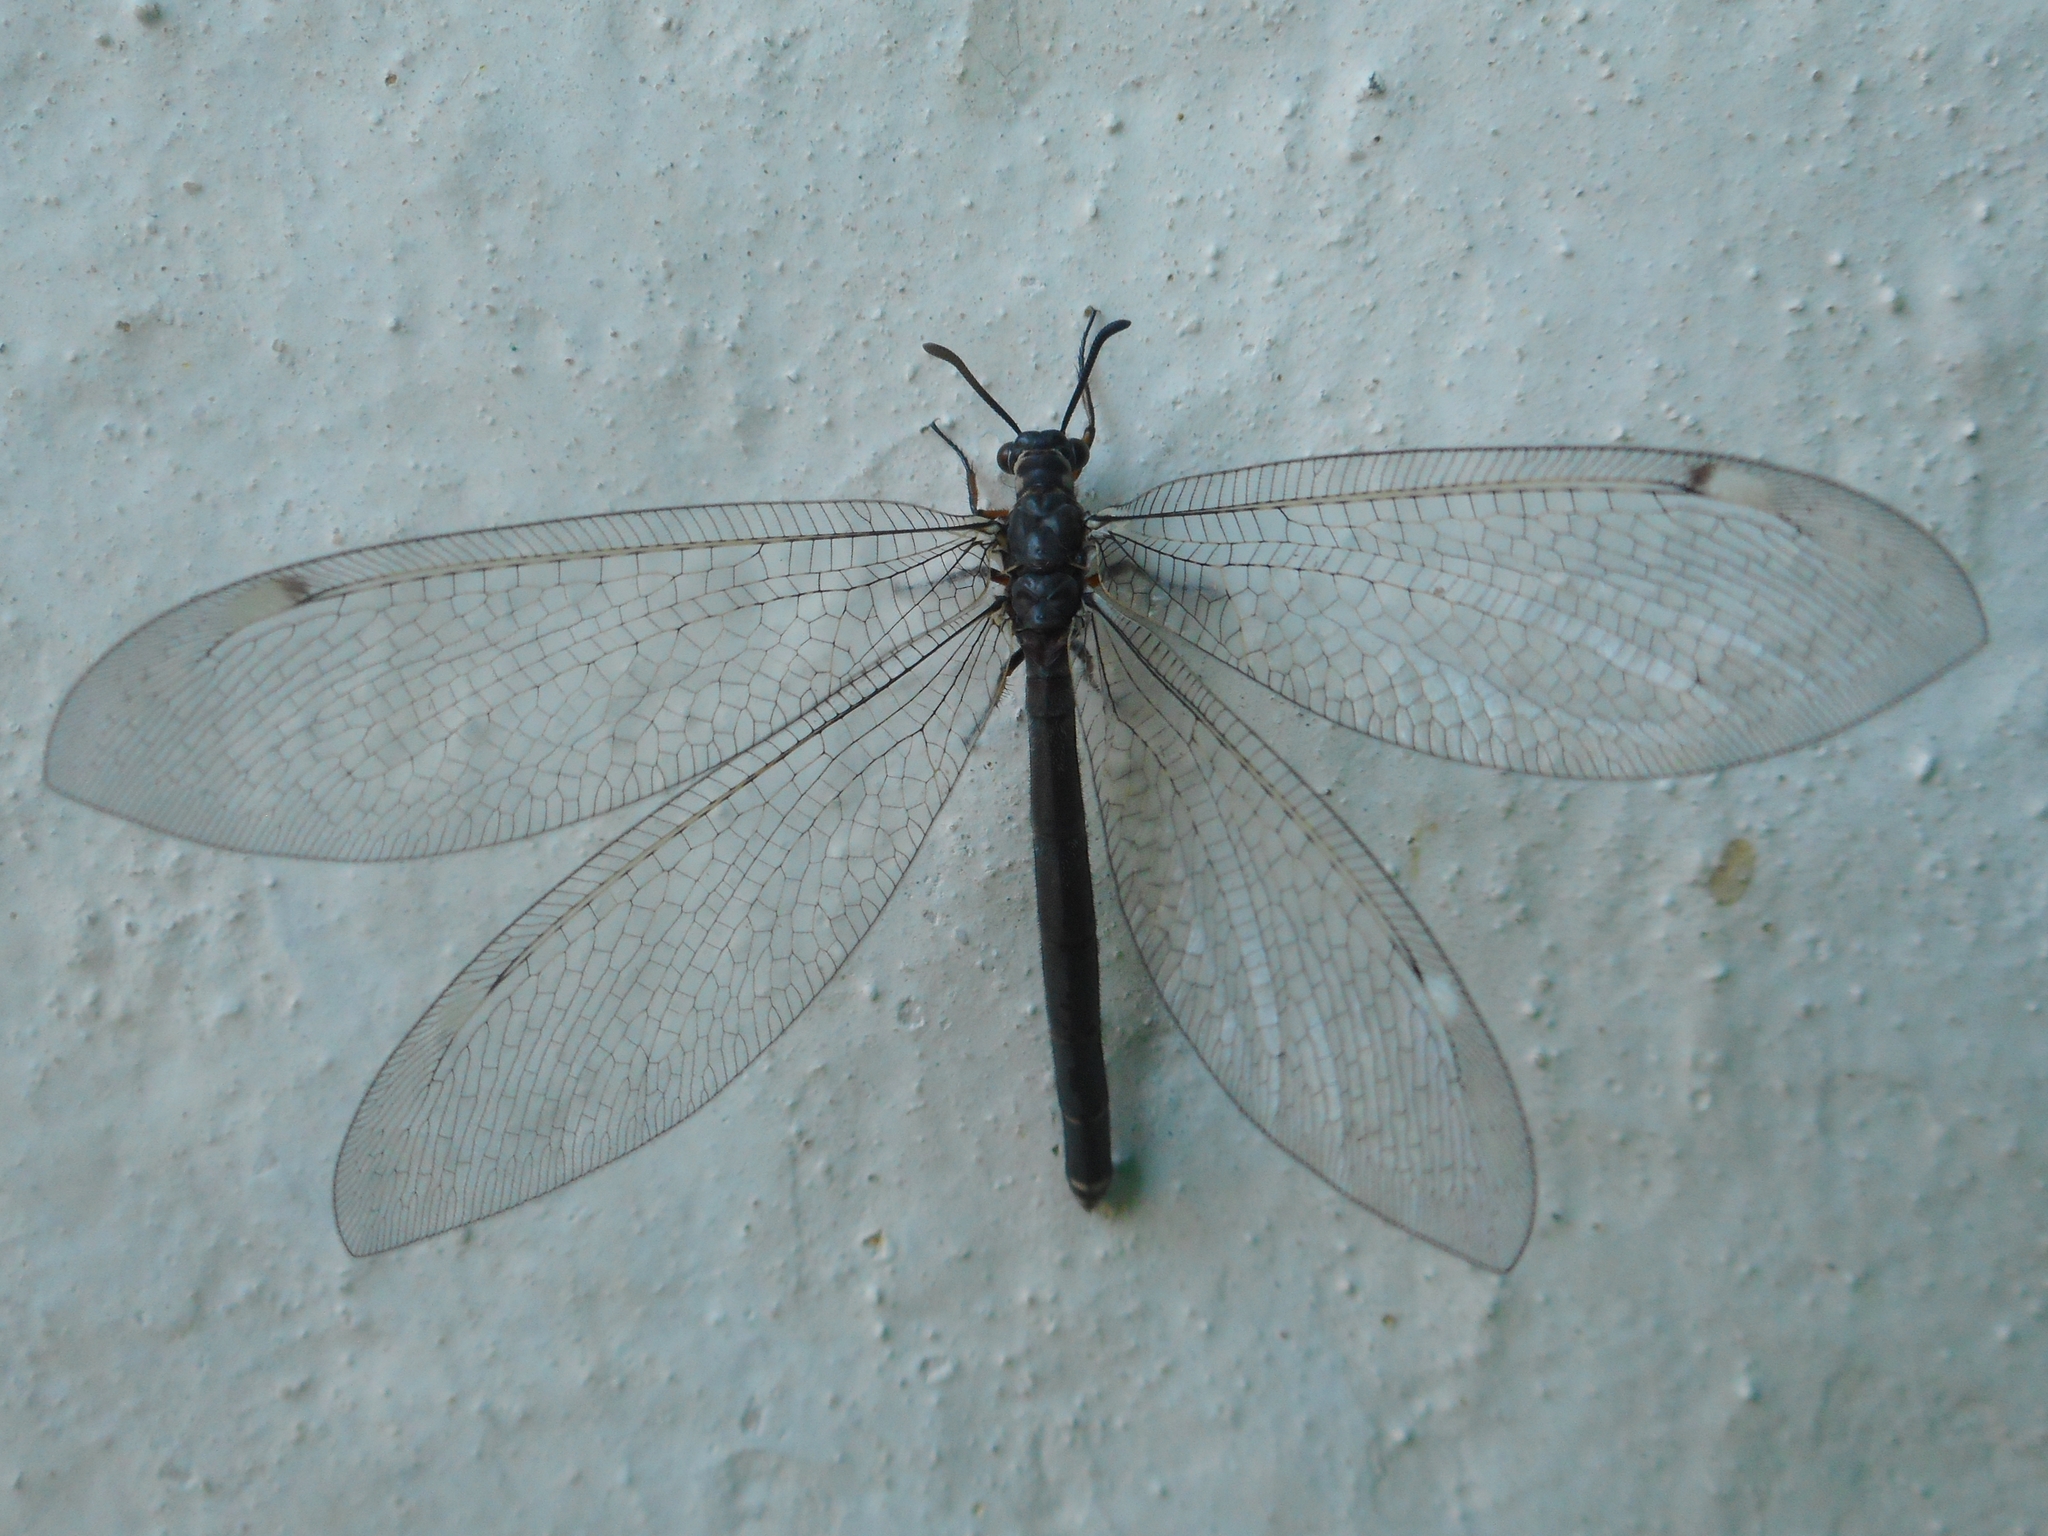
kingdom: Animalia
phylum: Arthropoda
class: Insecta
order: Neuroptera
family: Myrmeleontidae
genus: Myrmeleon
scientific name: Myrmeleon formicarius
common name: Ant-lion
